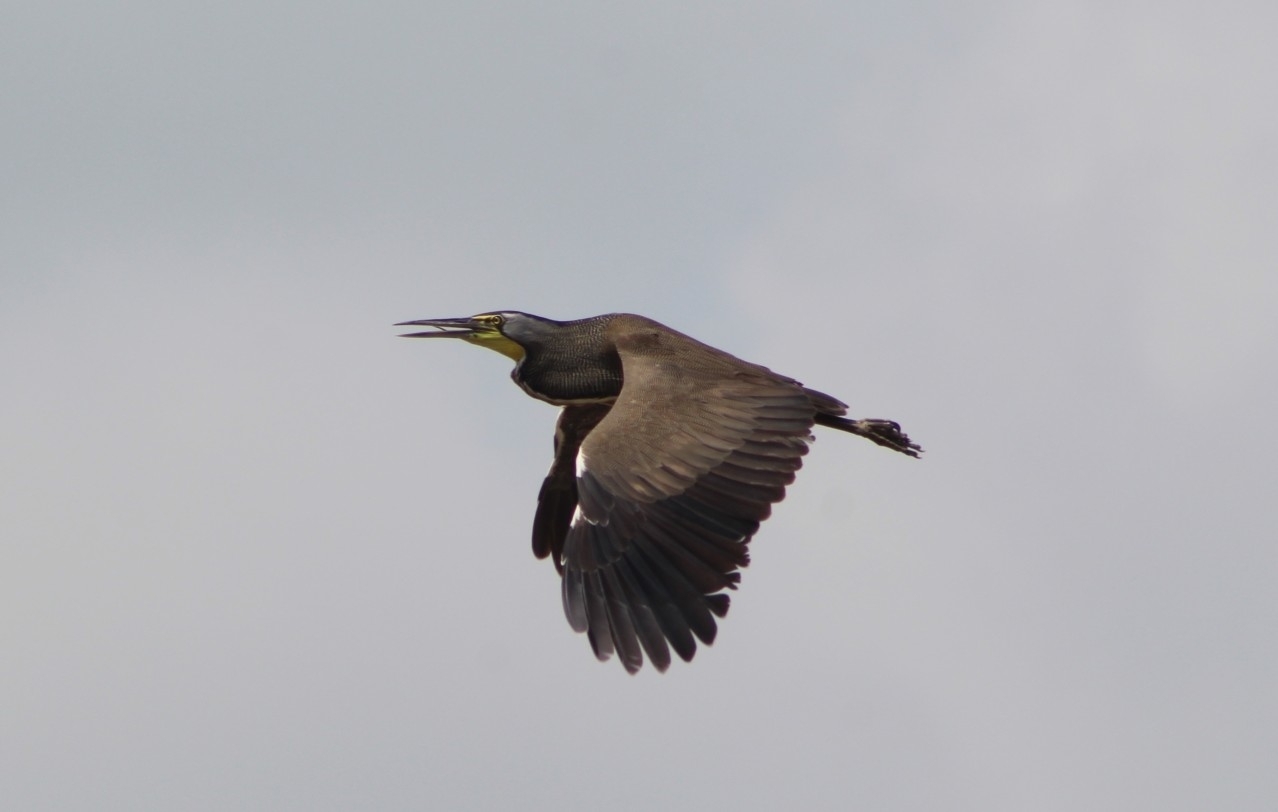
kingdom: Animalia
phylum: Chordata
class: Aves
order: Pelecaniformes
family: Ardeidae
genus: Tigrisoma
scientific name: Tigrisoma mexicanum
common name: Bare-throated tiger-heron
